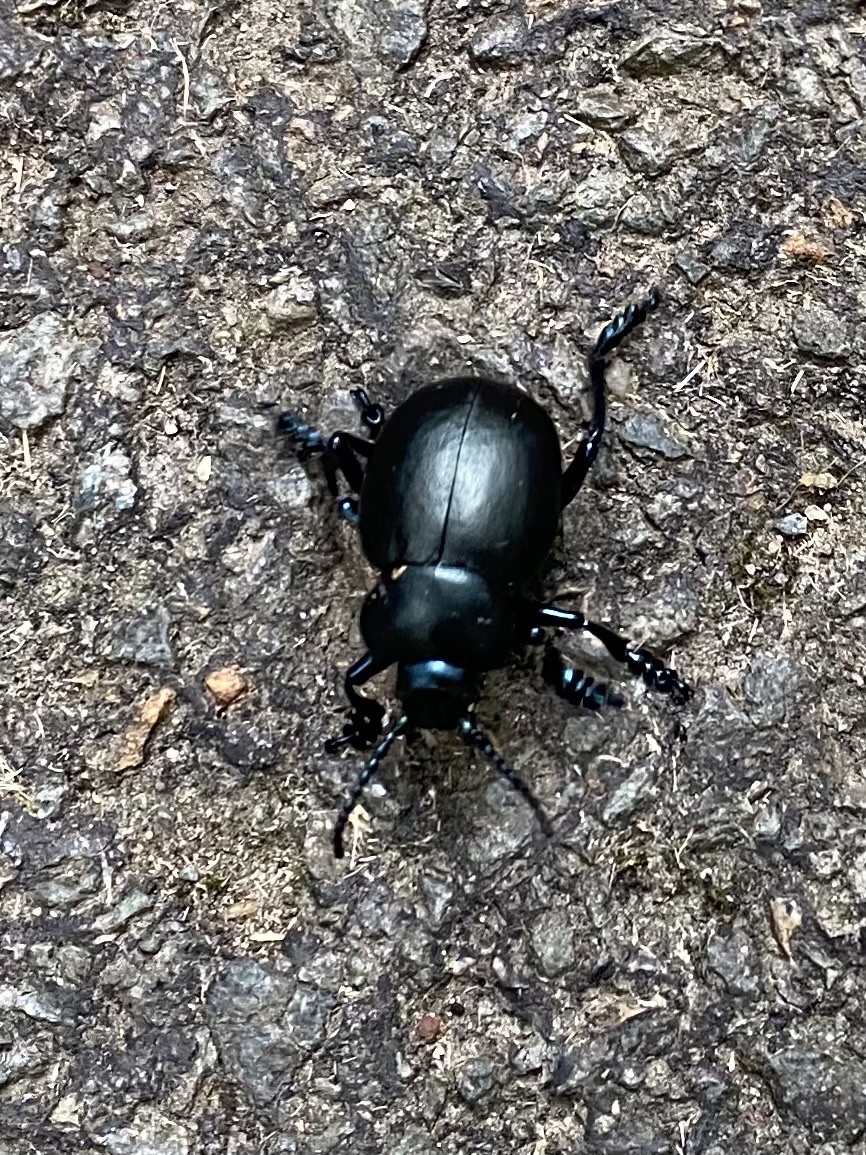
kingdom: Animalia
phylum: Arthropoda
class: Insecta
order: Coleoptera
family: Chrysomelidae
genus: Timarcha
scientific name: Timarcha tenebricosa
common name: Bloody-nosed beetle
